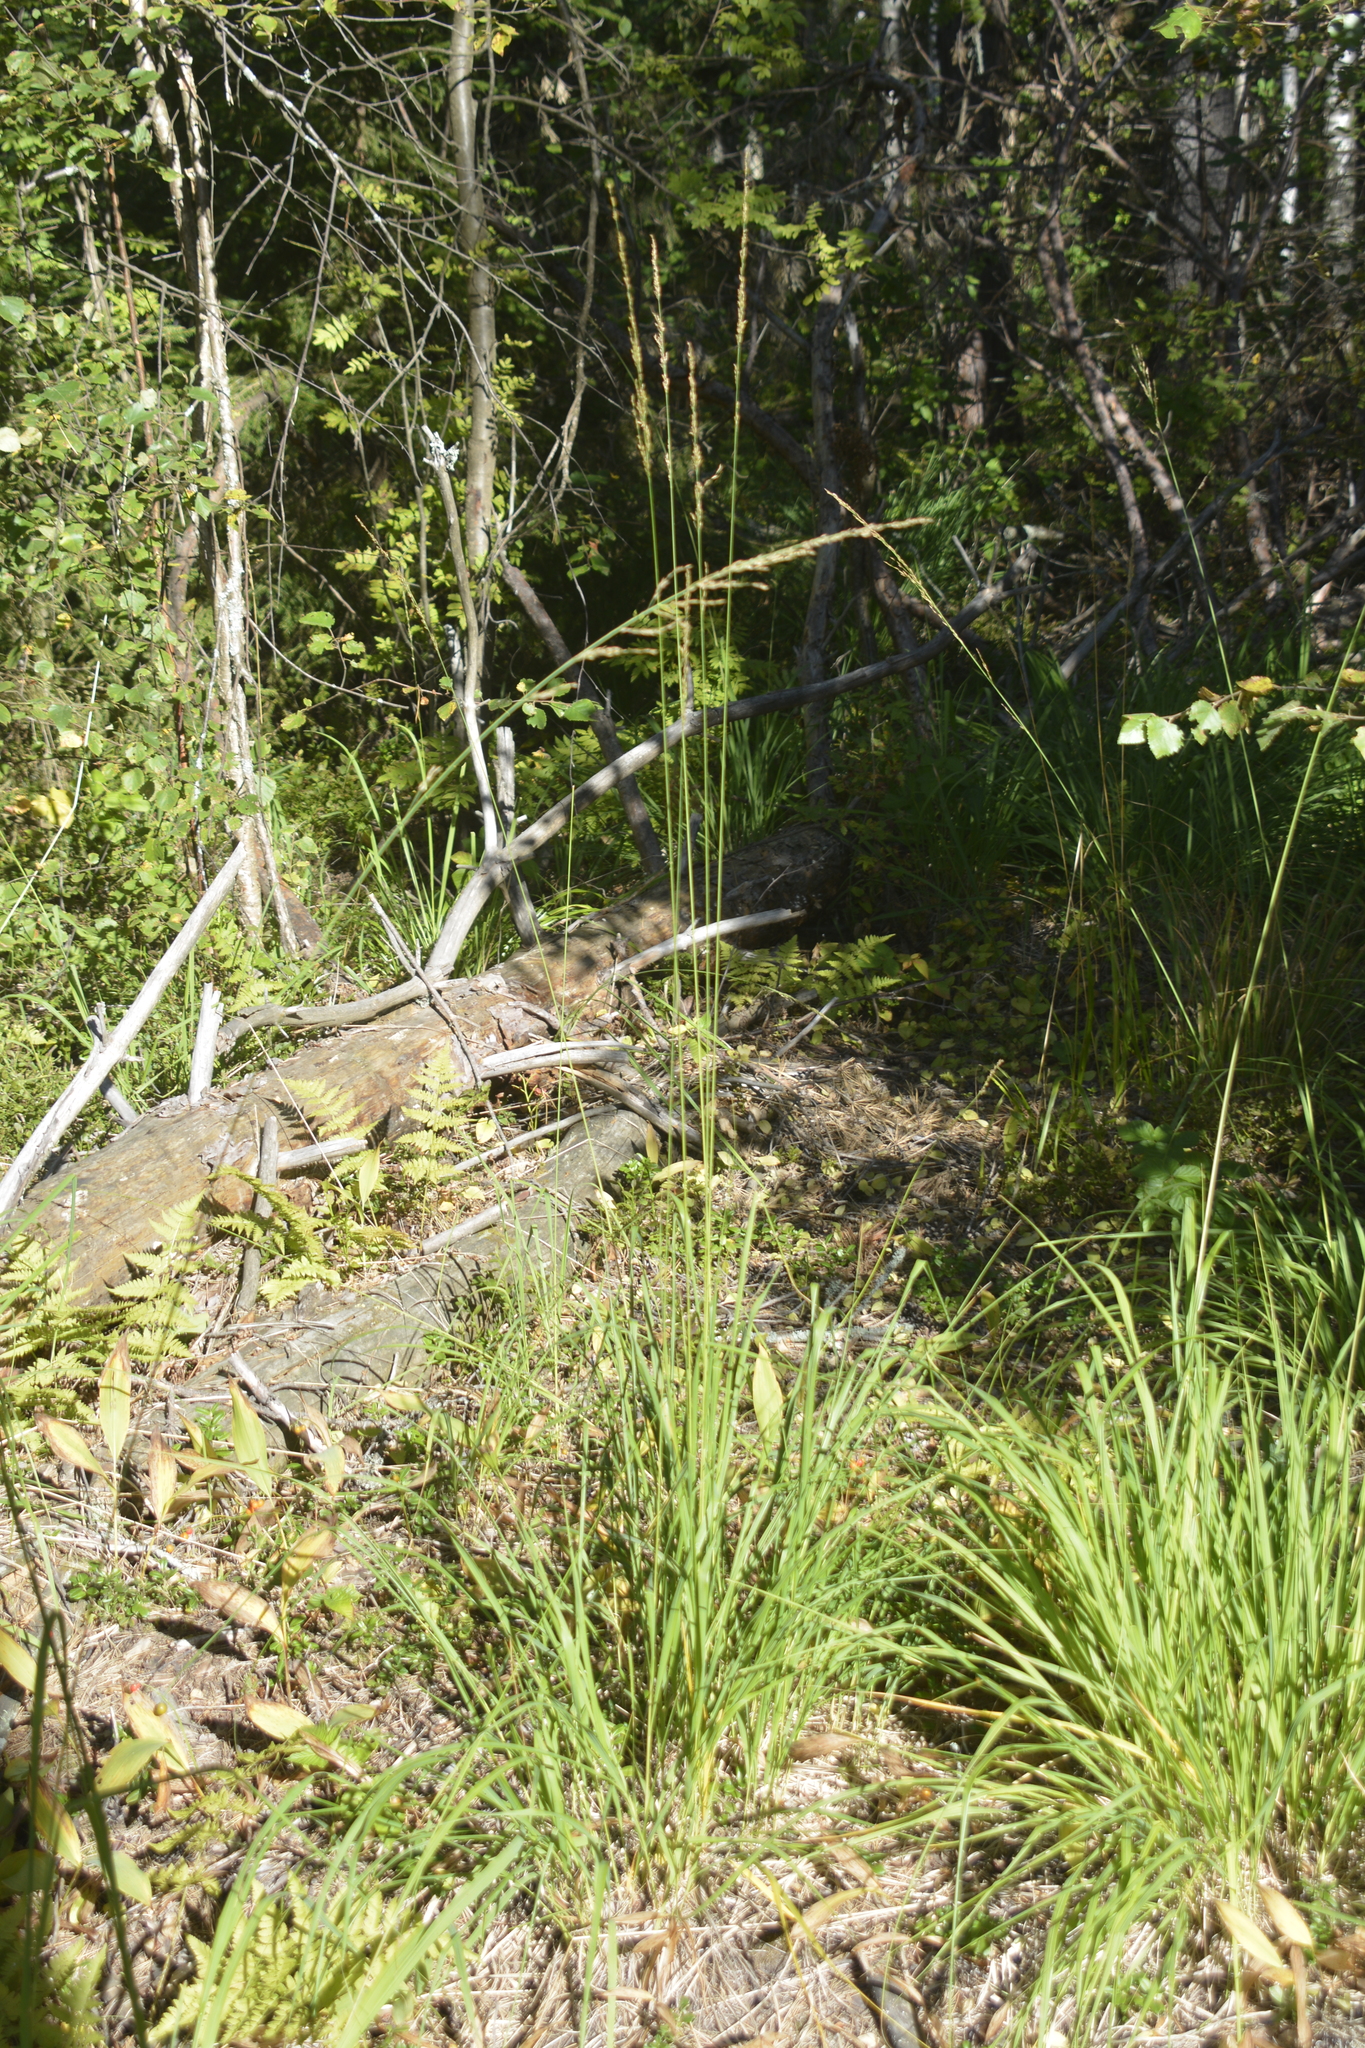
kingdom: Plantae
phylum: Tracheophyta
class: Liliopsida
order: Poales
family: Poaceae
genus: Molinia
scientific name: Molinia caerulea
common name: Purple moor-grass
